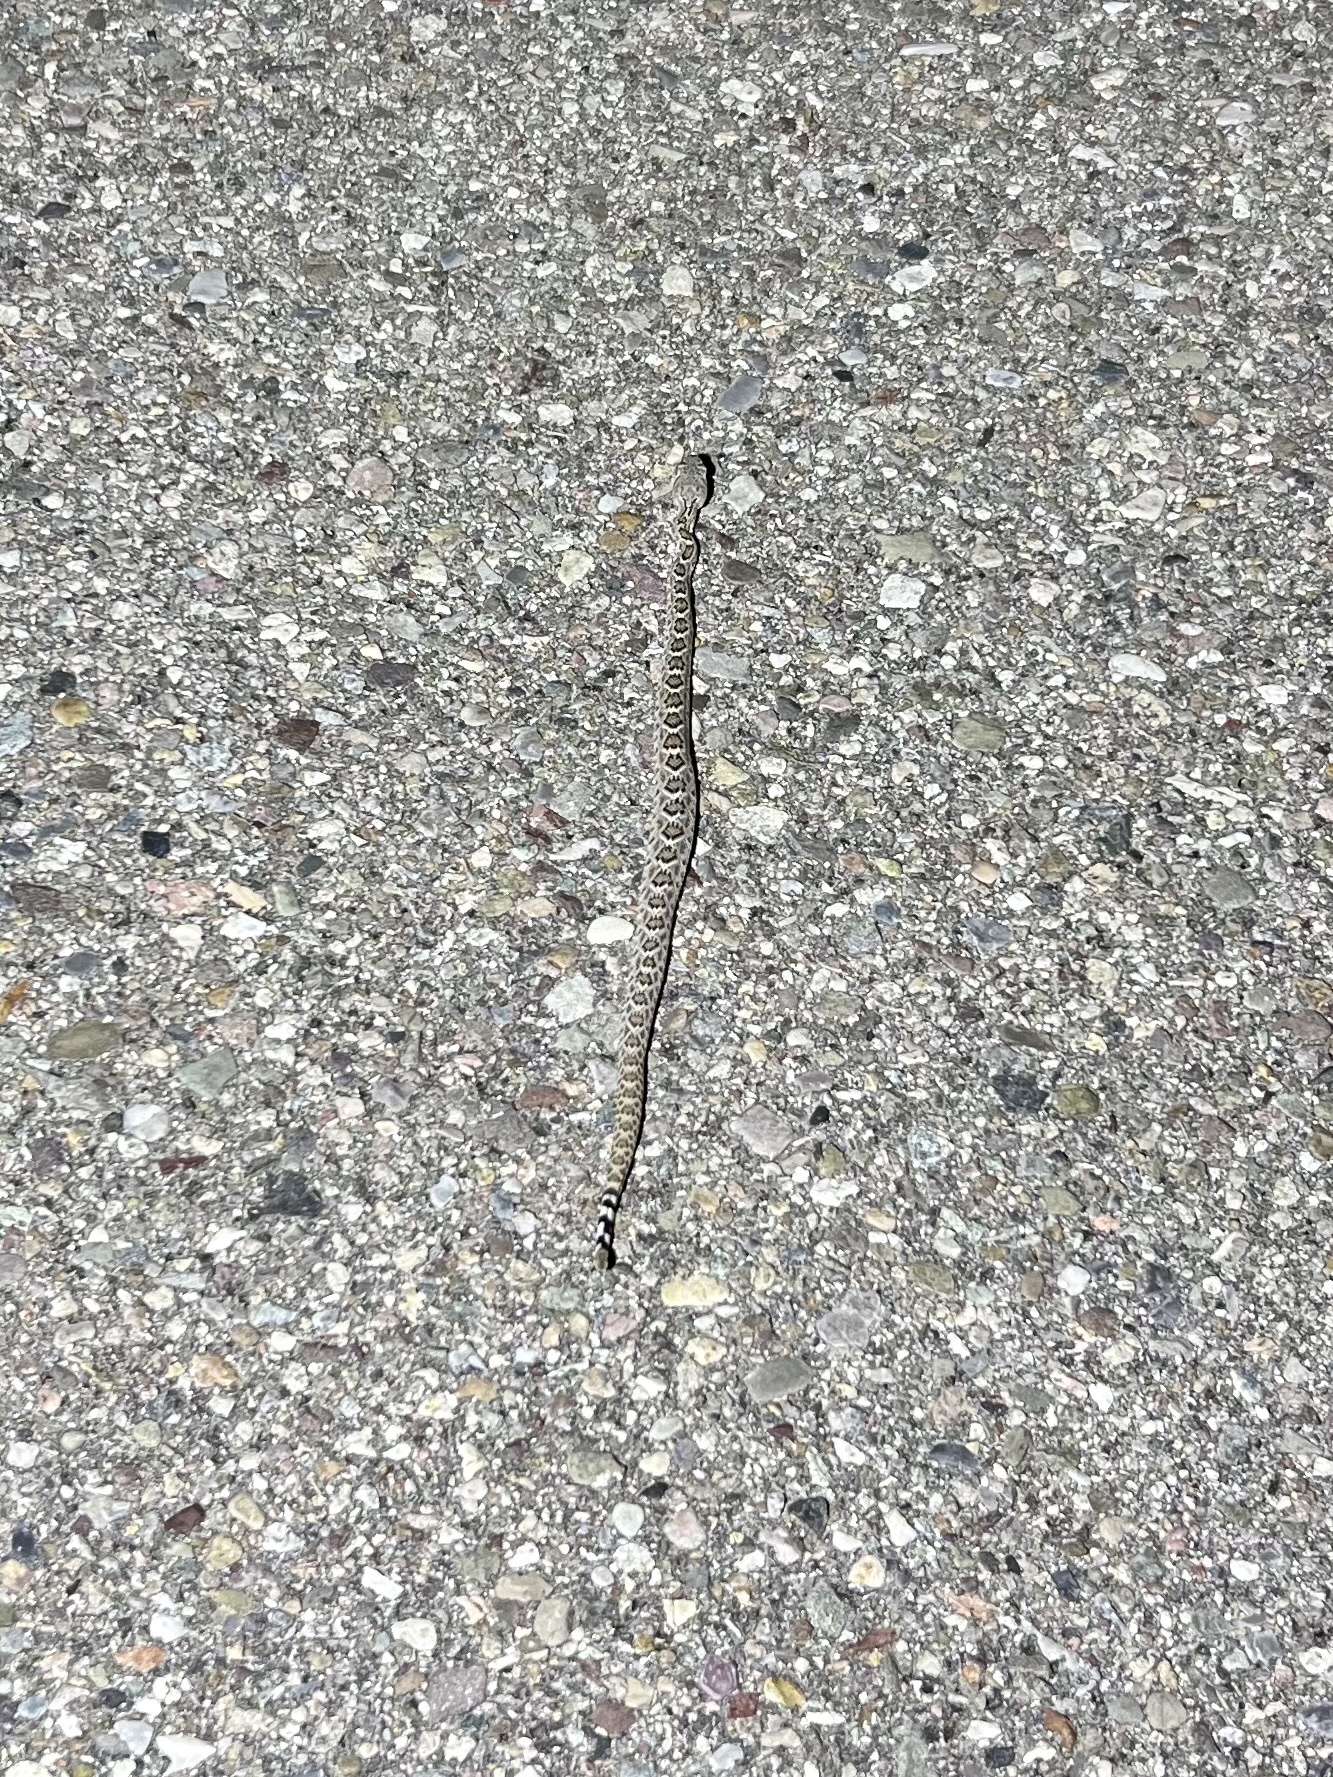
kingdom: Animalia
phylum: Chordata
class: Squamata
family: Viperidae
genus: Crotalus
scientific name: Crotalus atrox
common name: Western diamond-backed rattlesnake
